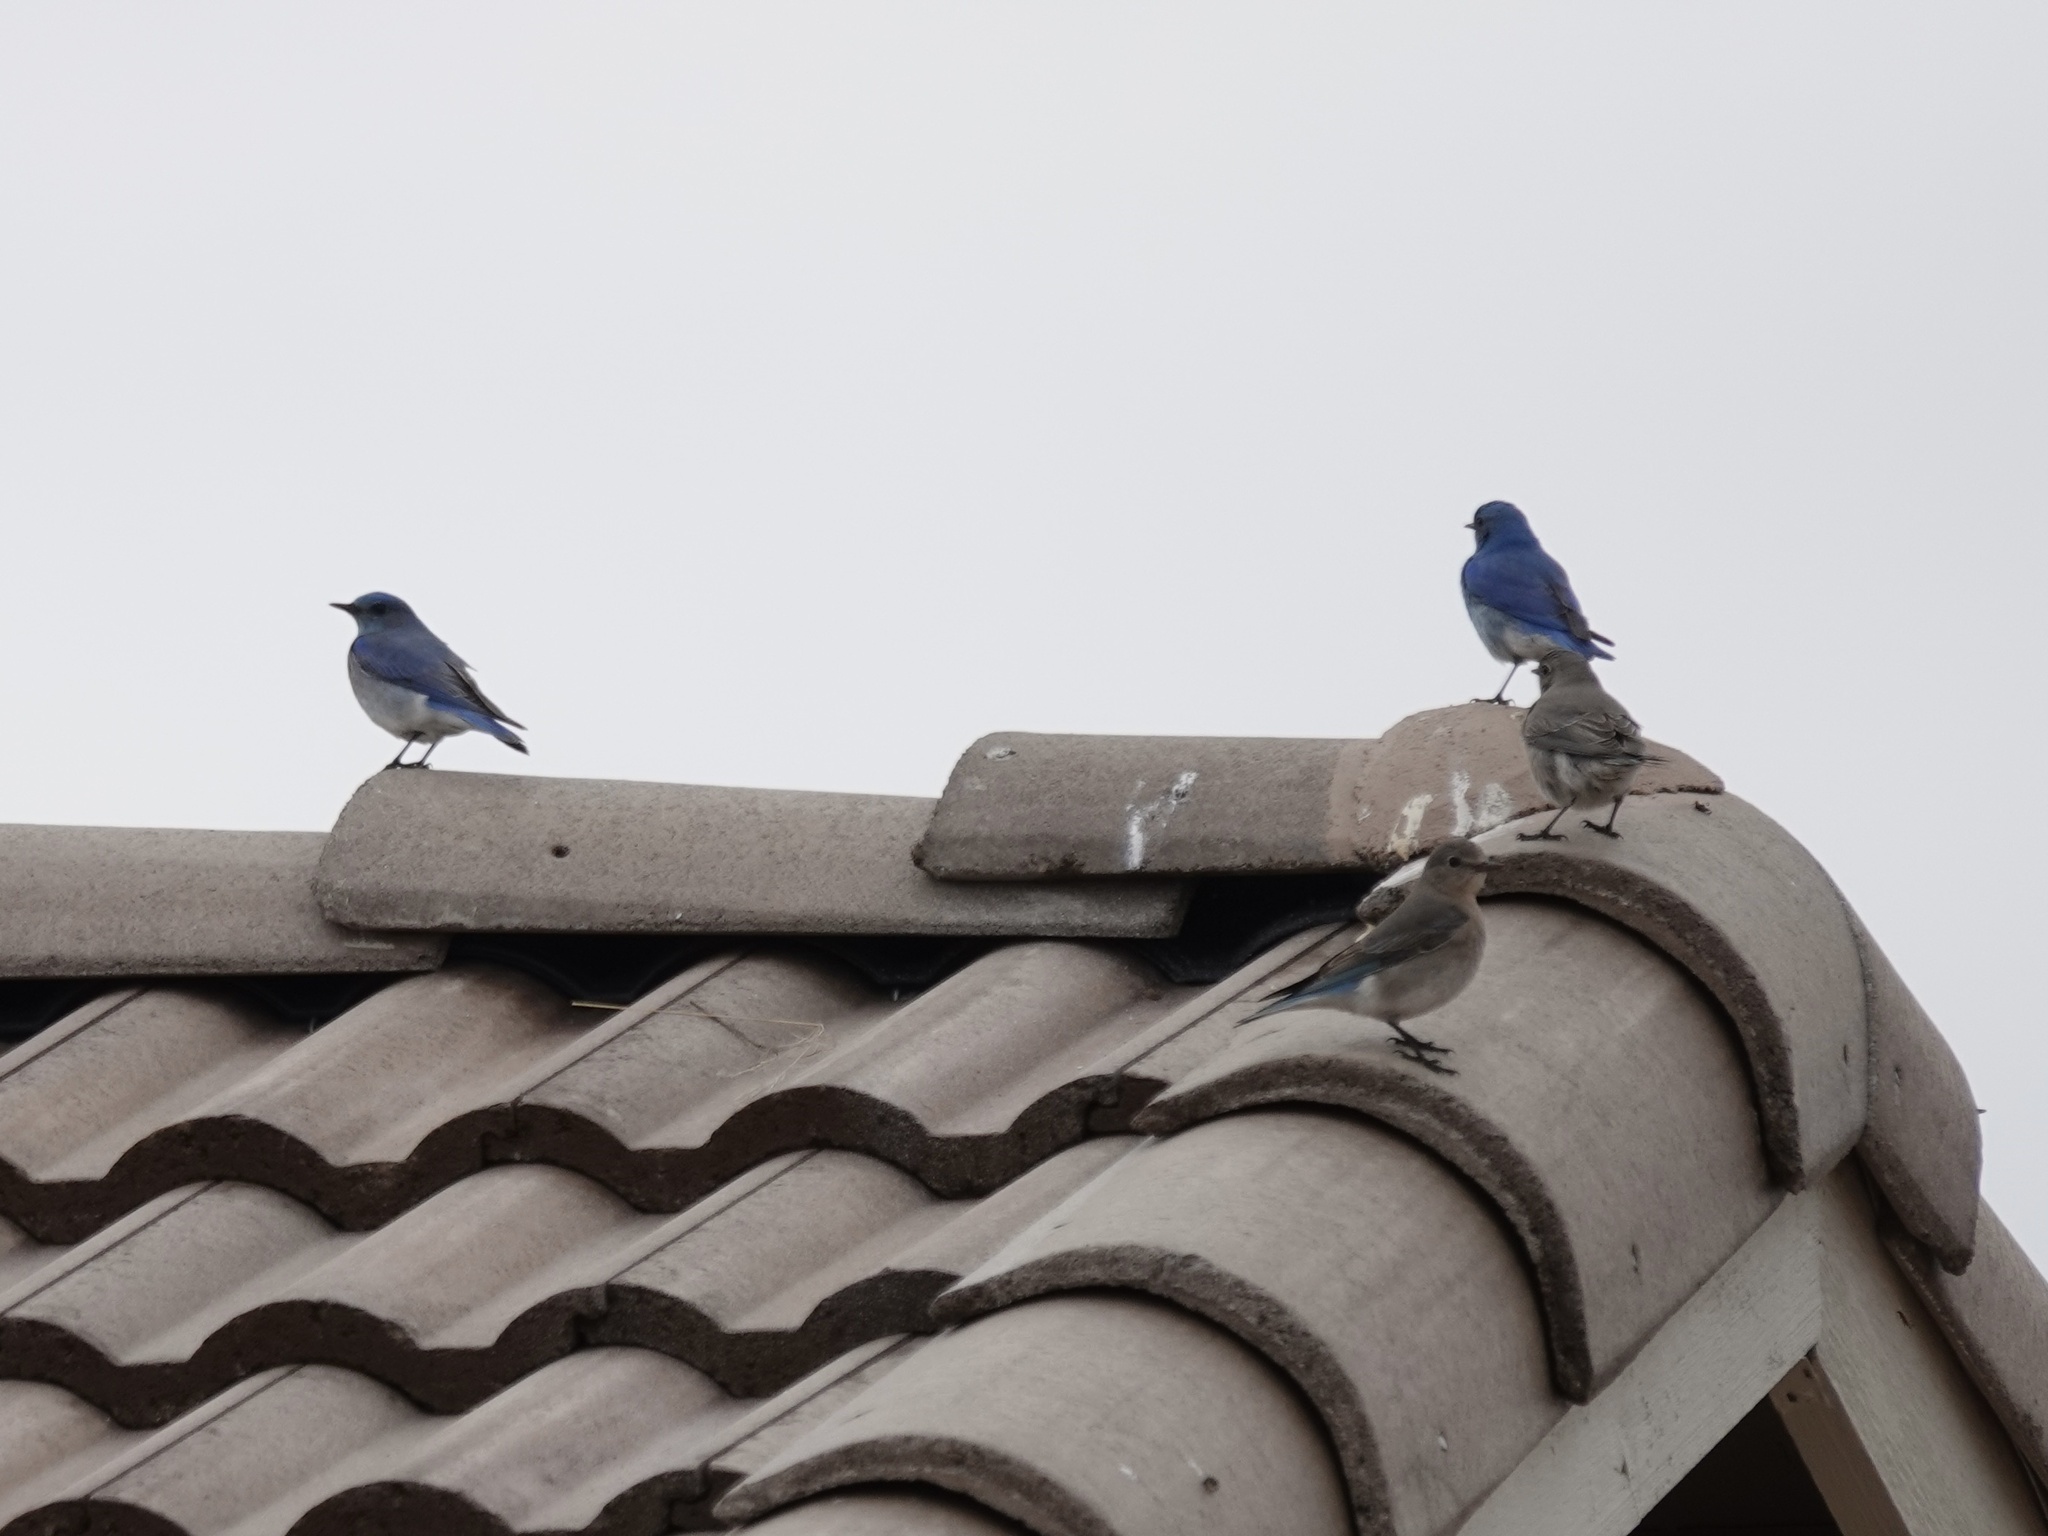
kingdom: Animalia
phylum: Chordata
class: Aves
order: Passeriformes
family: Turdidae
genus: Sialia
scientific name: Sialia currucoides
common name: Mountain bluebird
